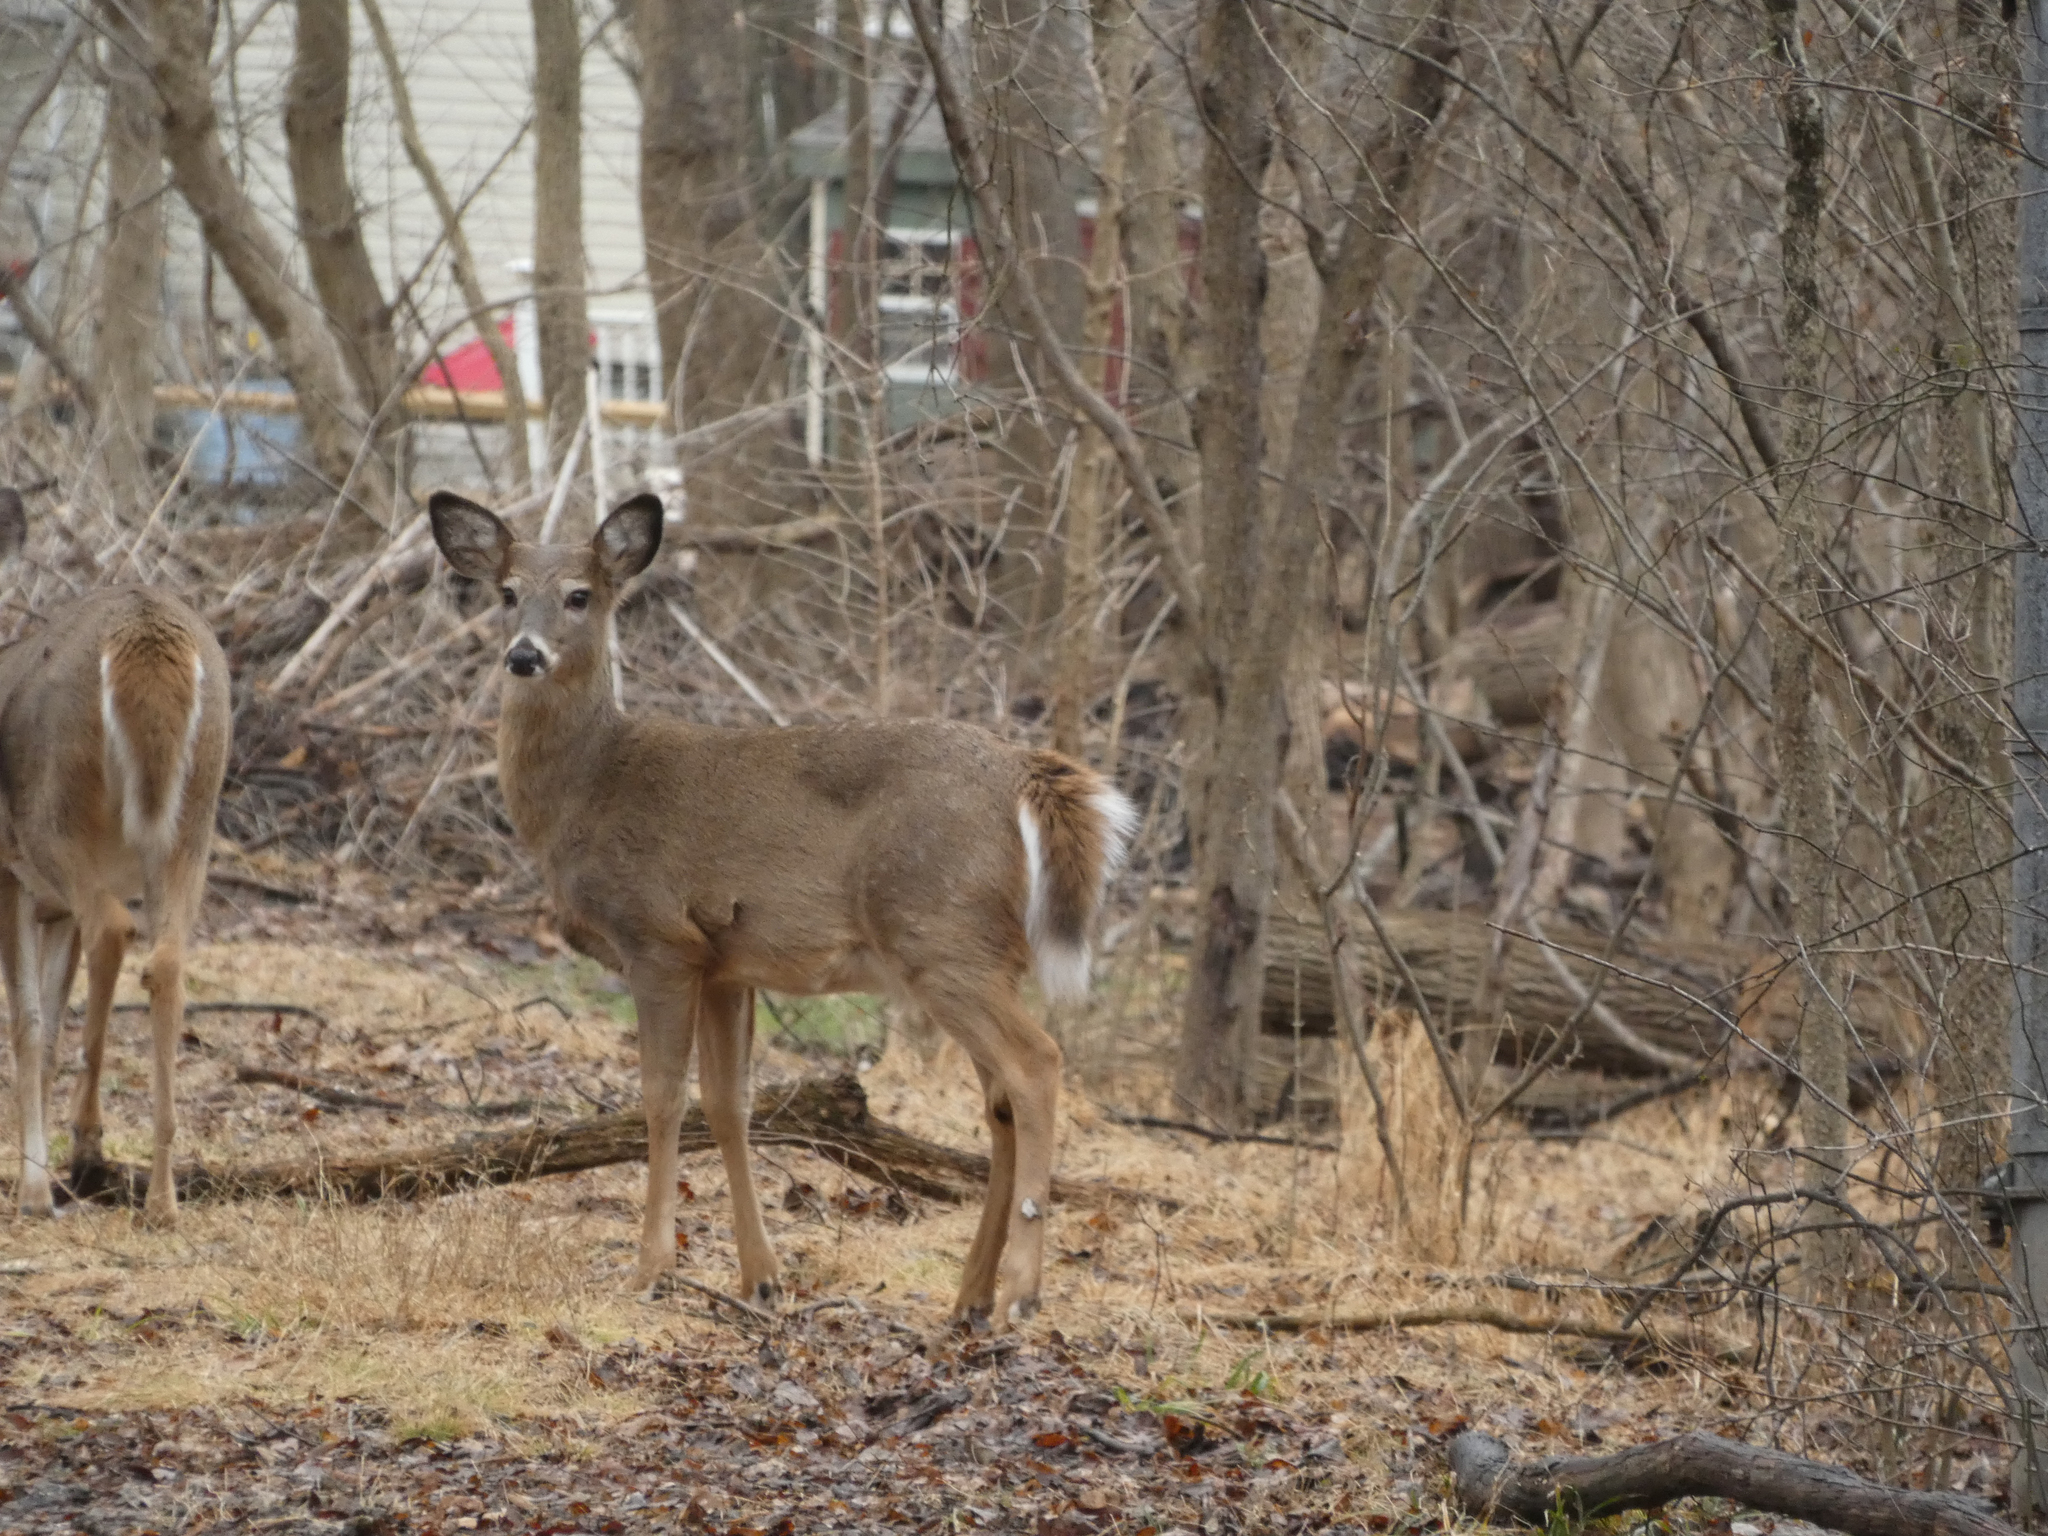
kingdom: Animalia
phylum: Chordata
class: Mammalia
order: Artiodactyla
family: Cervidae
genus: Odocoileus
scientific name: Odocoileus virginianus
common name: White-tailed deer
